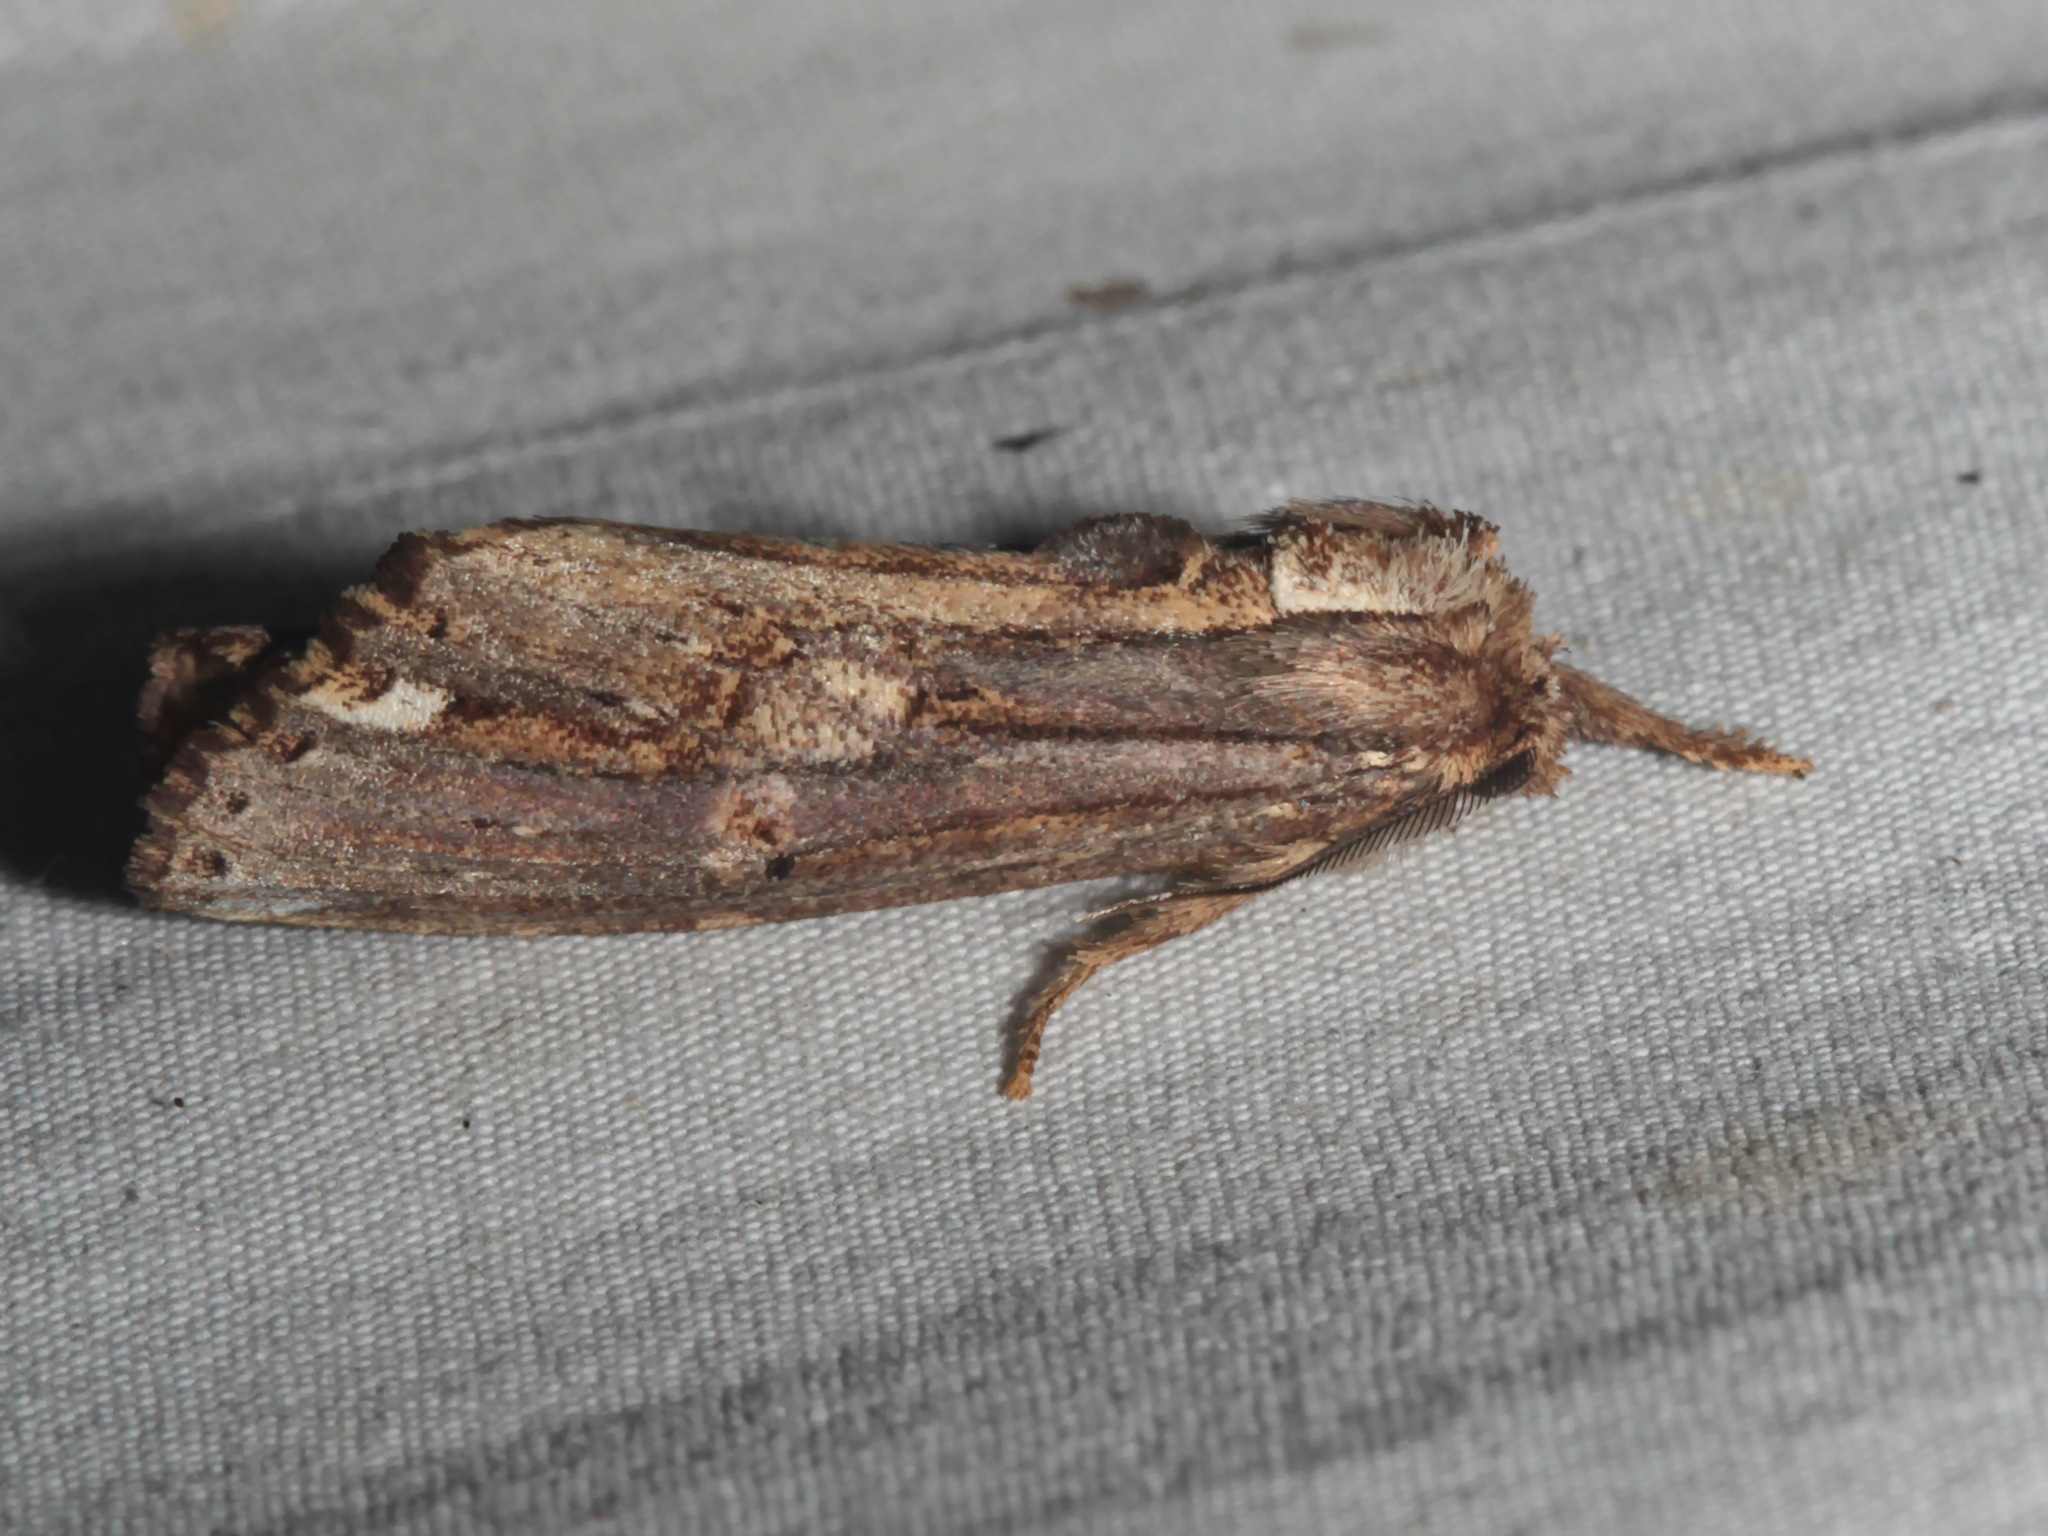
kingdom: Animalia
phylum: Arthropoda
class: Insecta
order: Lepidoptera
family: Notodontidae
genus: Brykia
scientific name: Brykia horsfieldi
